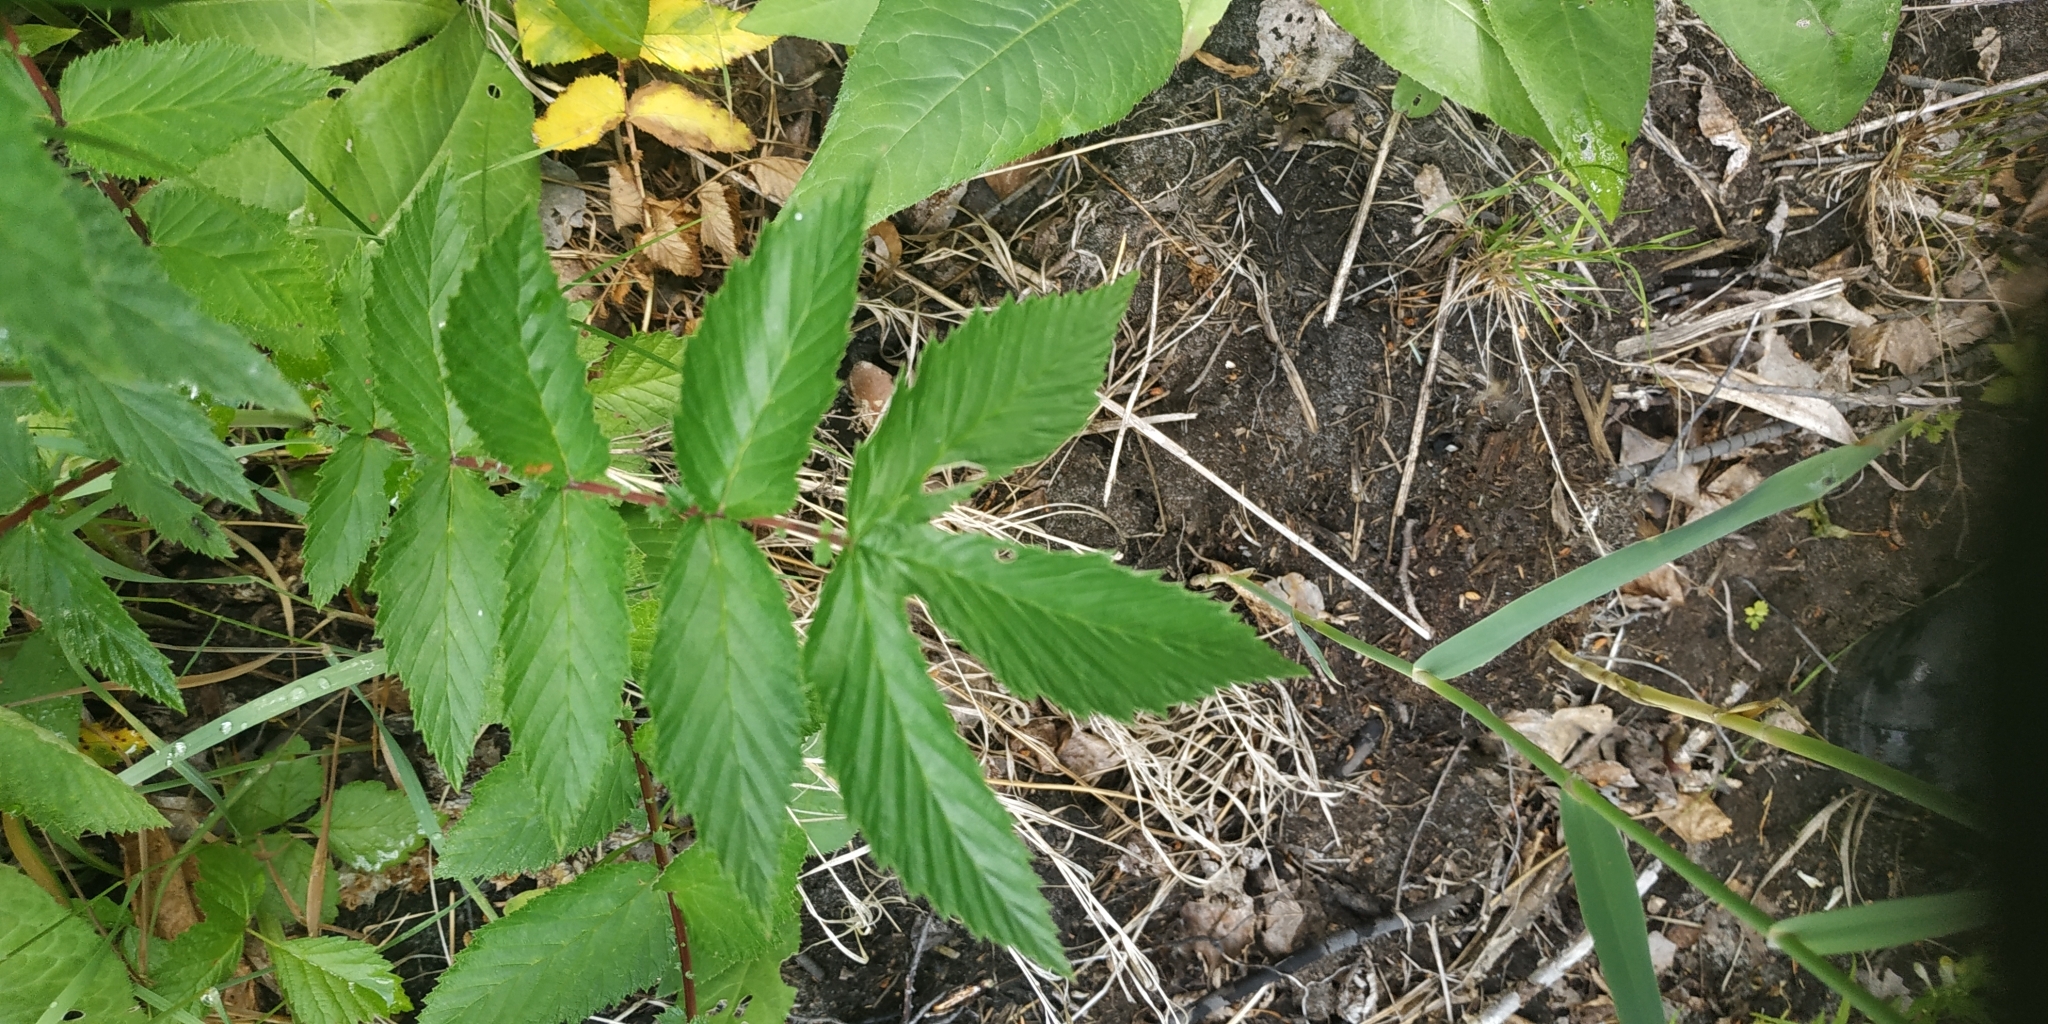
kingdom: Plantae
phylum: Tracheophyta
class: Magnoliopsida
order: Rosales
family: Rosaceae
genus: Filipendula
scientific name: Filipendula ulmaria
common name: Meadowsweet
